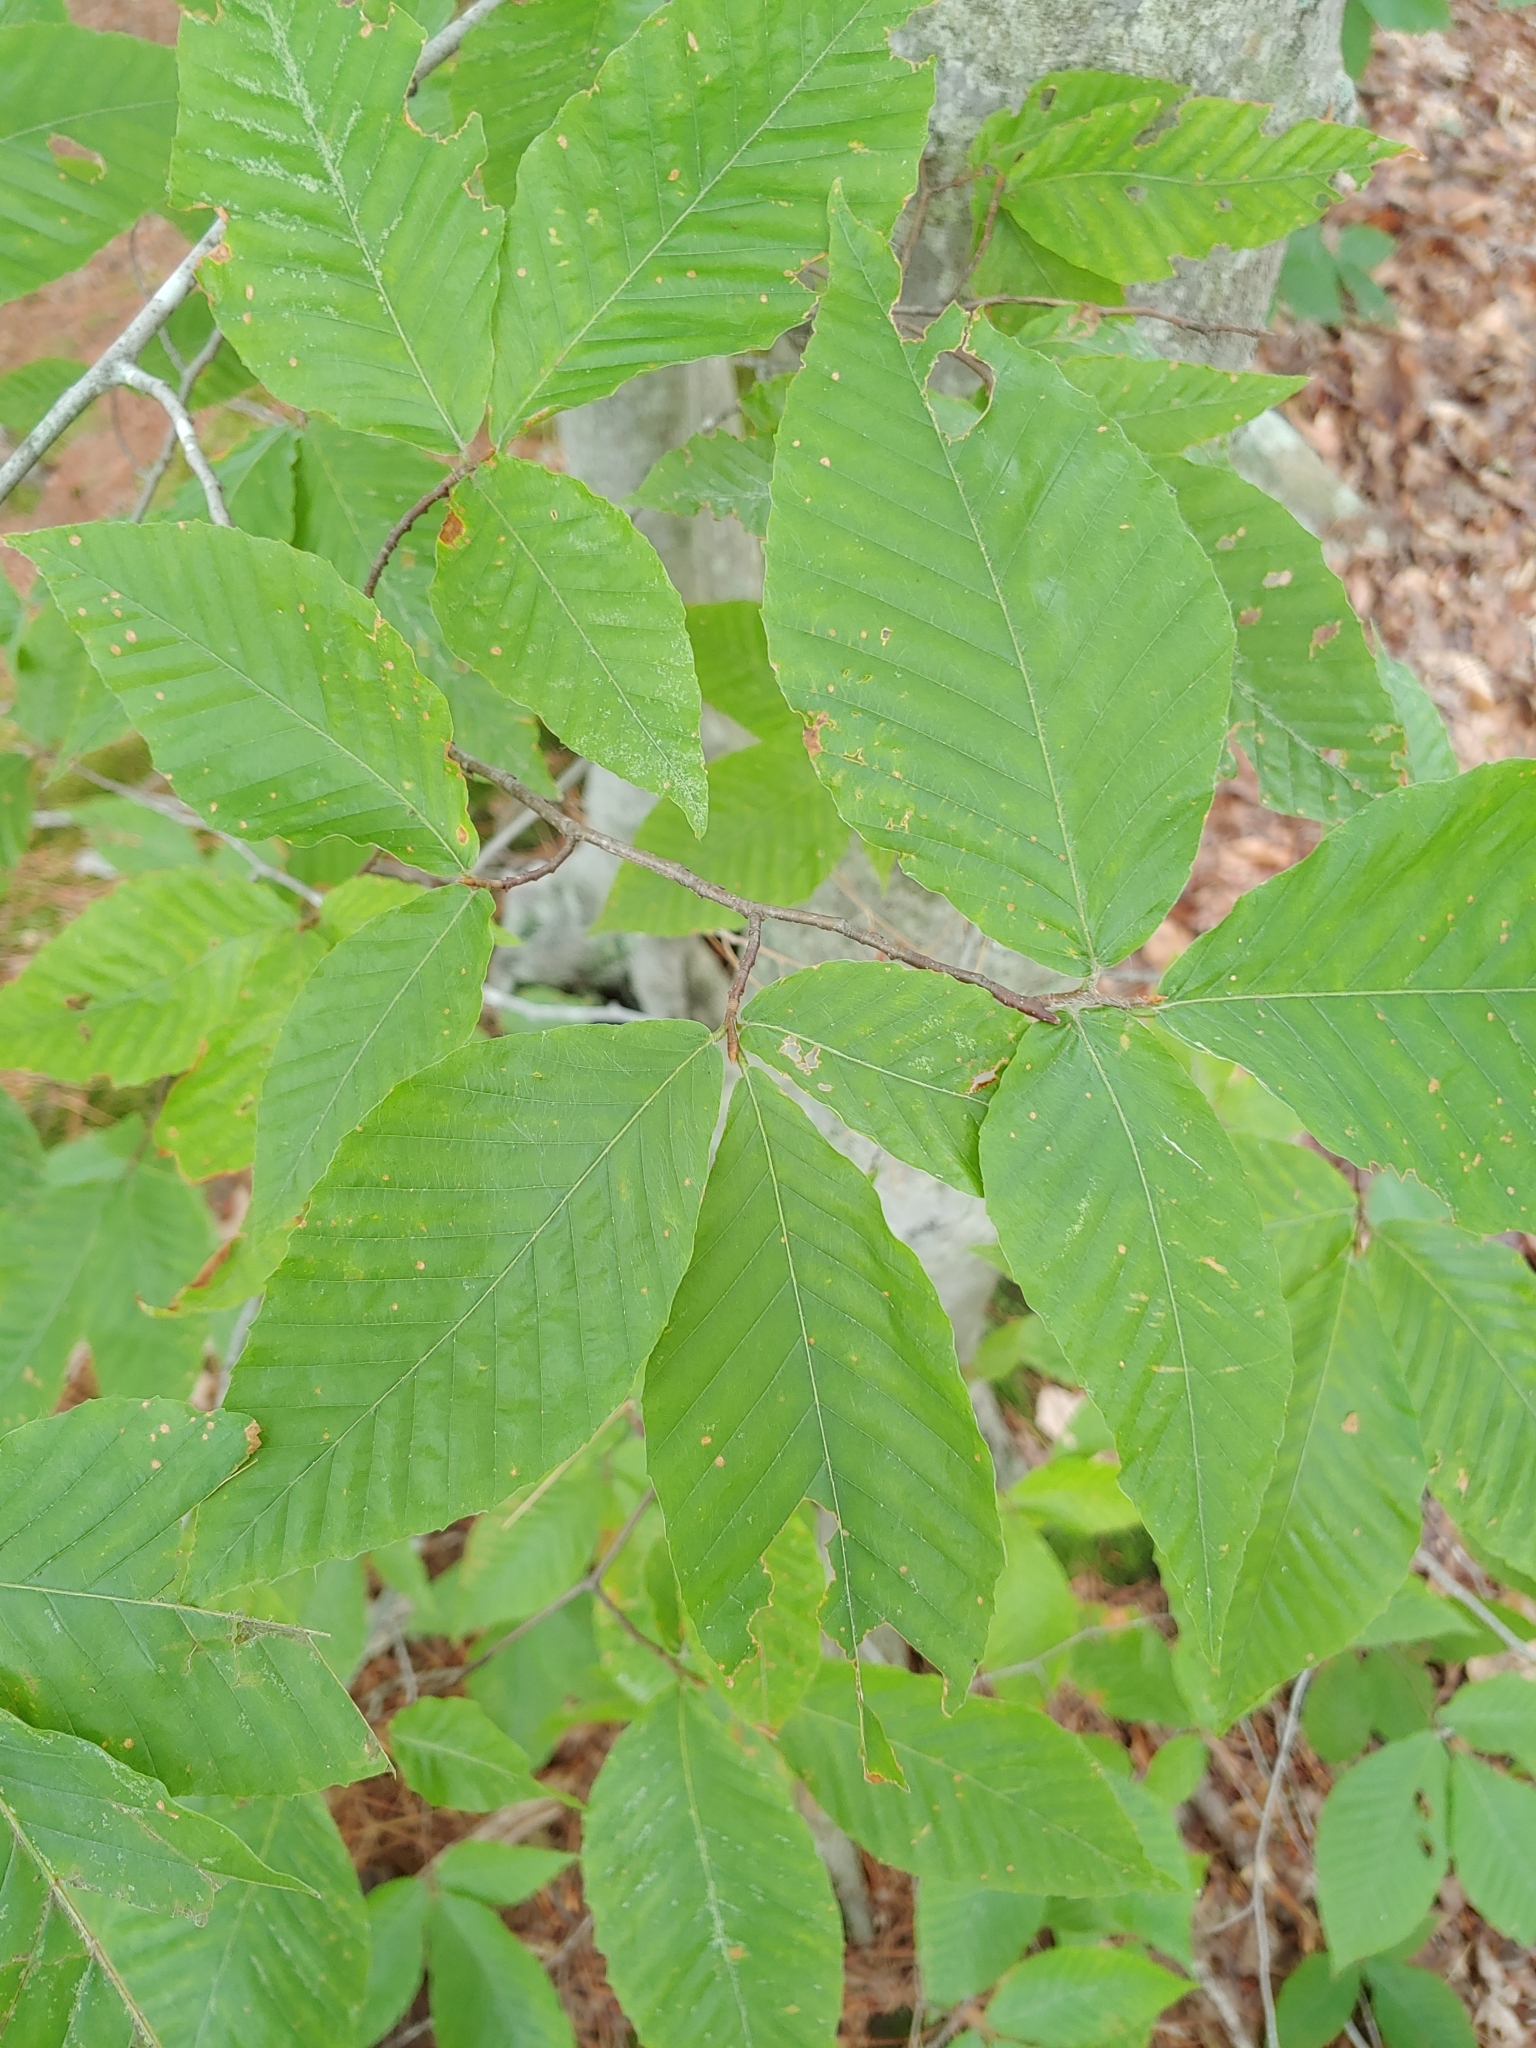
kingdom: Plantae
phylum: Tracheophyta
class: Magnoliopsida
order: Fagales
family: Fagaceae
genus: Fagus
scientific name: Fagus grandifolia
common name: American beech
